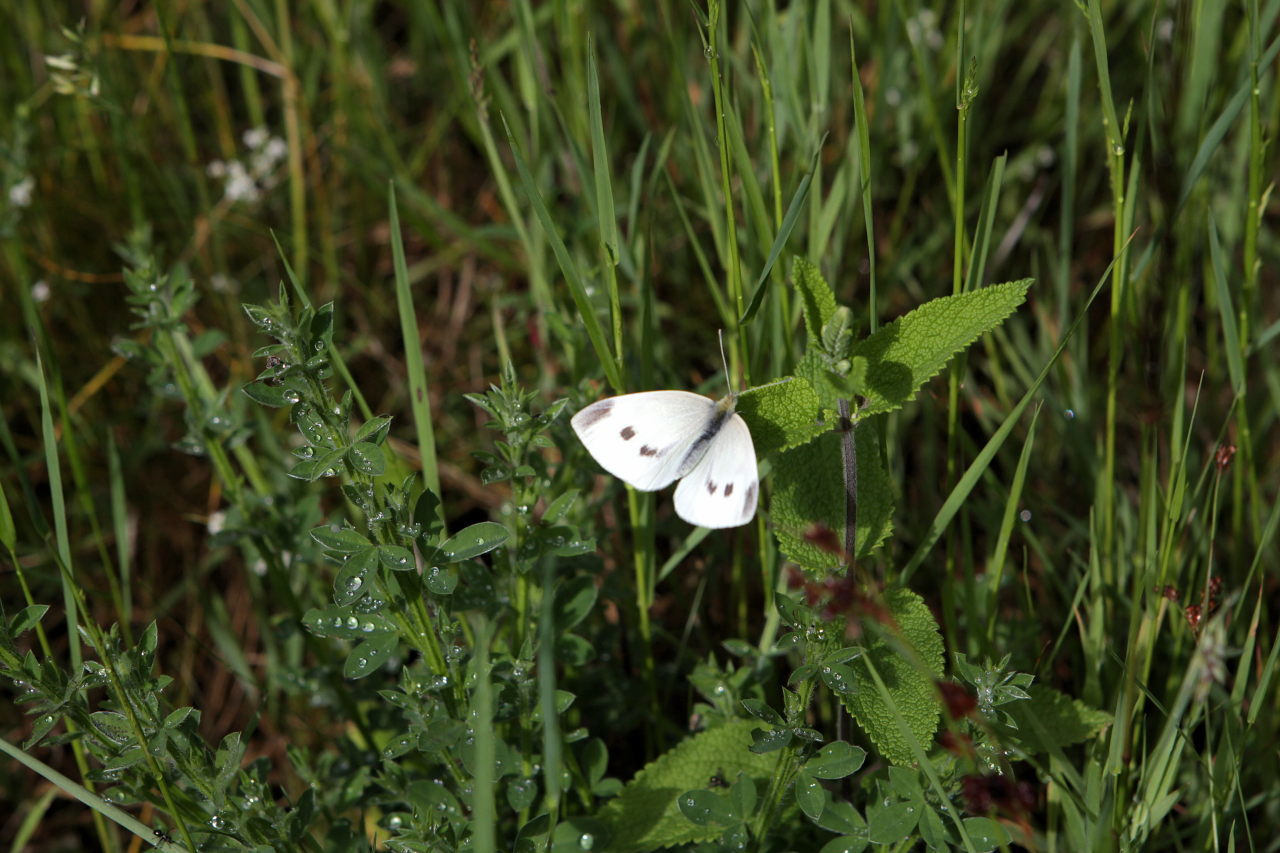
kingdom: Animalia
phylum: Arthropoda
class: Insecta
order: Lepidoptera
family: Pieridae
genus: Pieris
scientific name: Pieris rapae
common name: Small white
